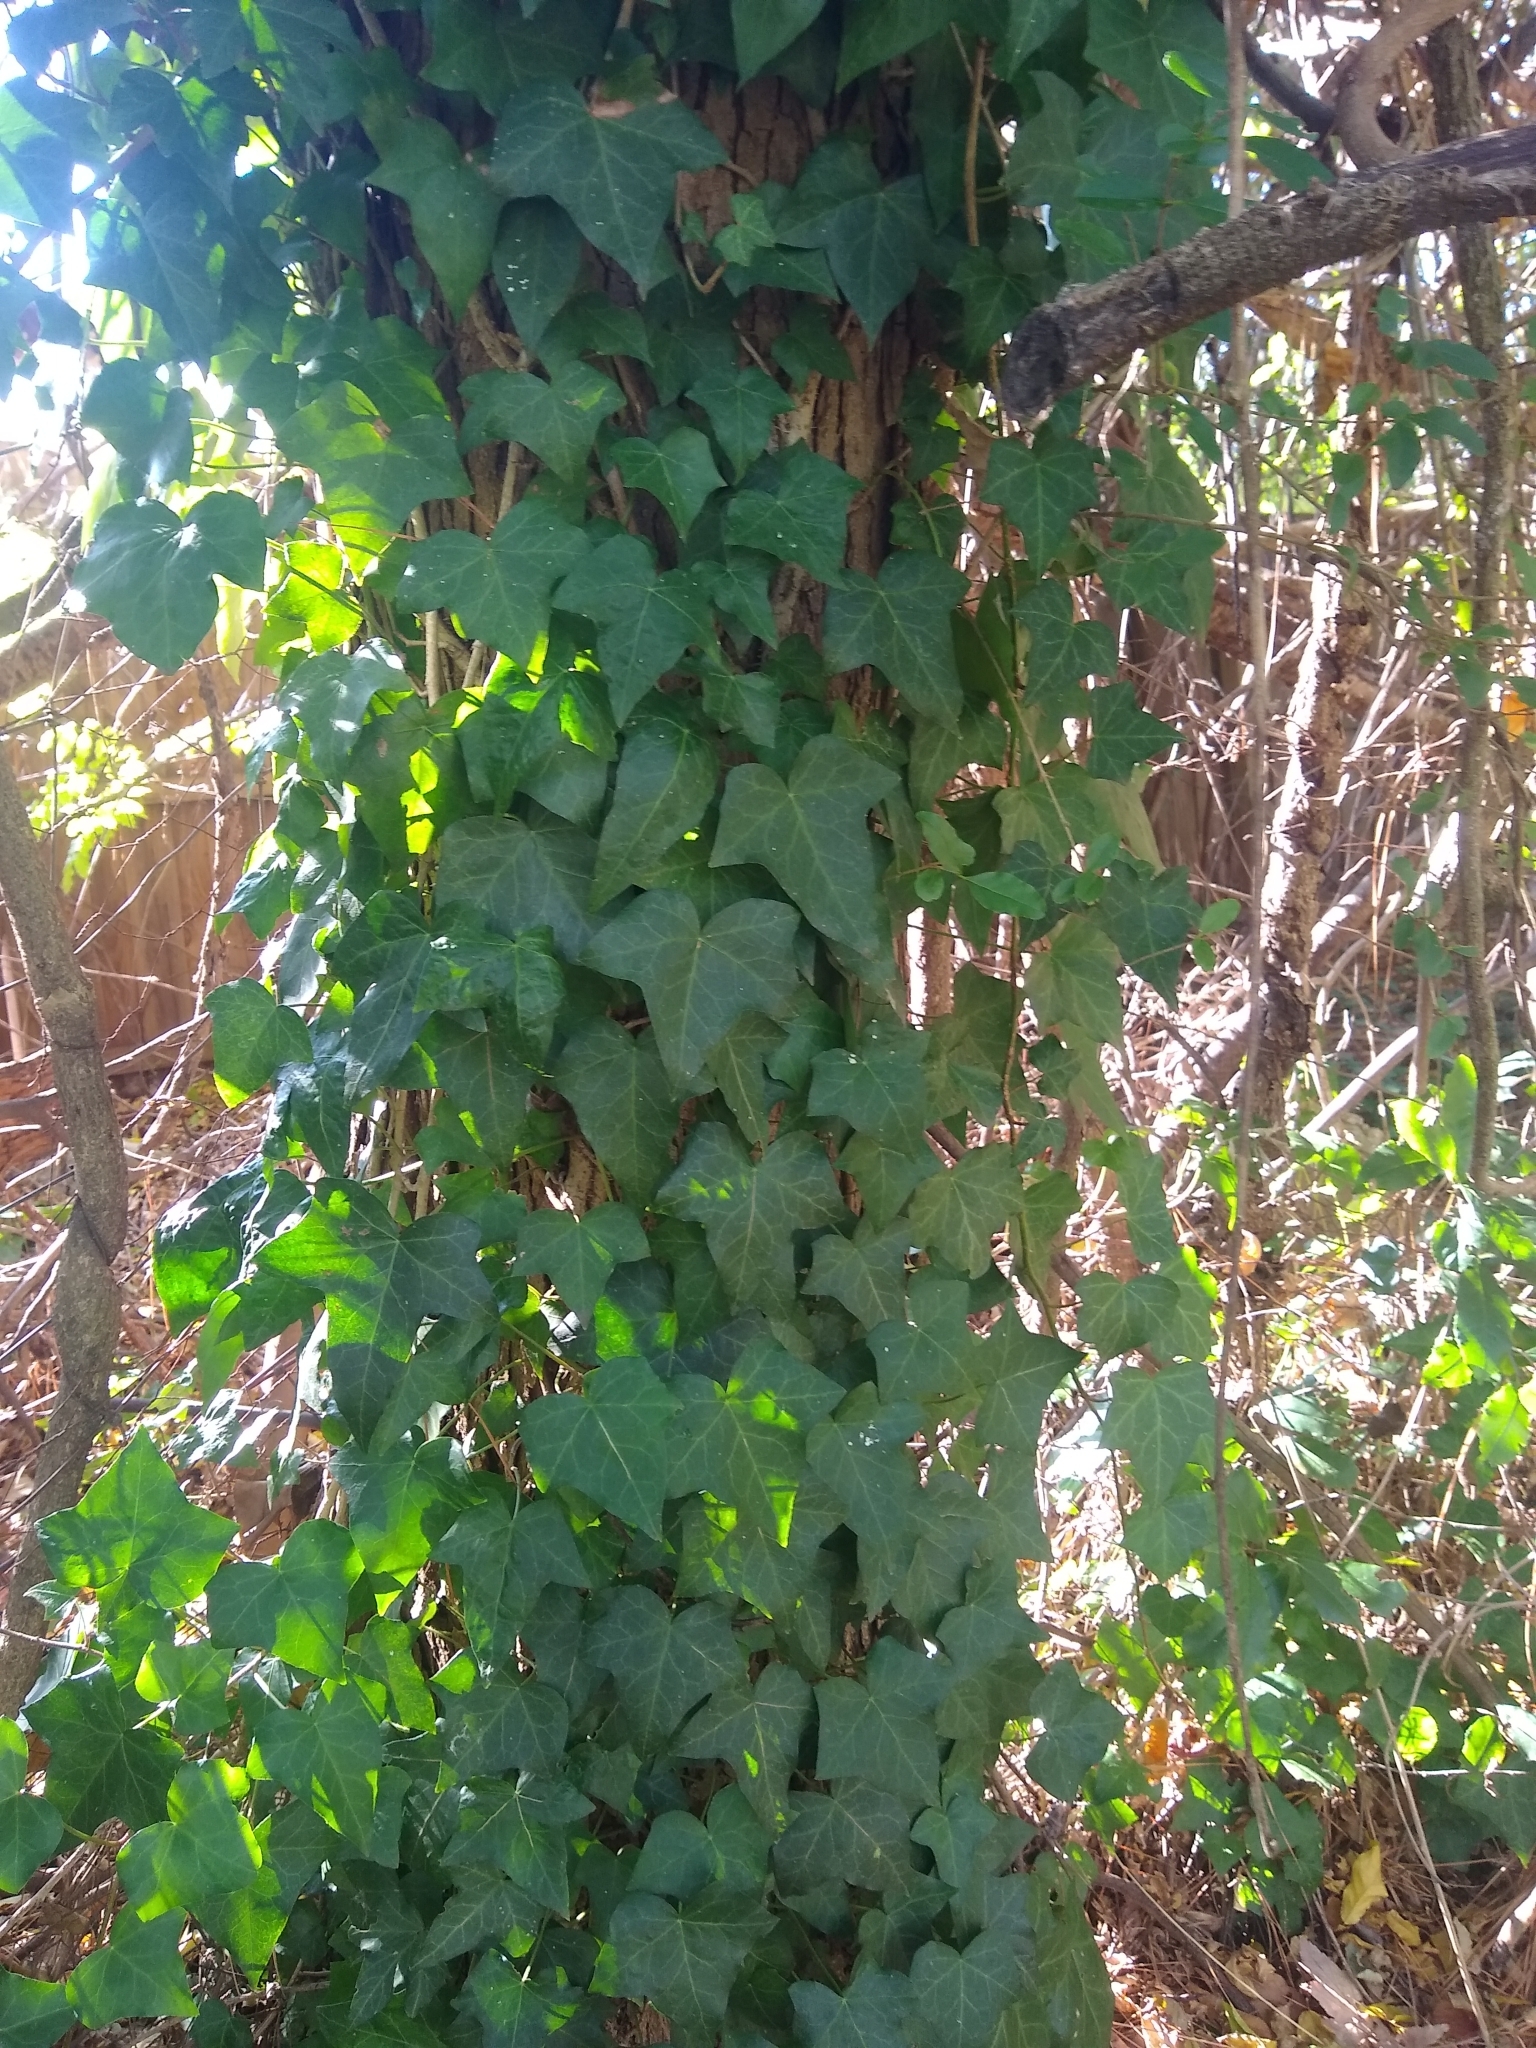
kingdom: Plantae
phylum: Tracheophyta
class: Magnoliopsida
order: Apiales
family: Araliaceae
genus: Hedera
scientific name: Hedera helix
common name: Ivy
